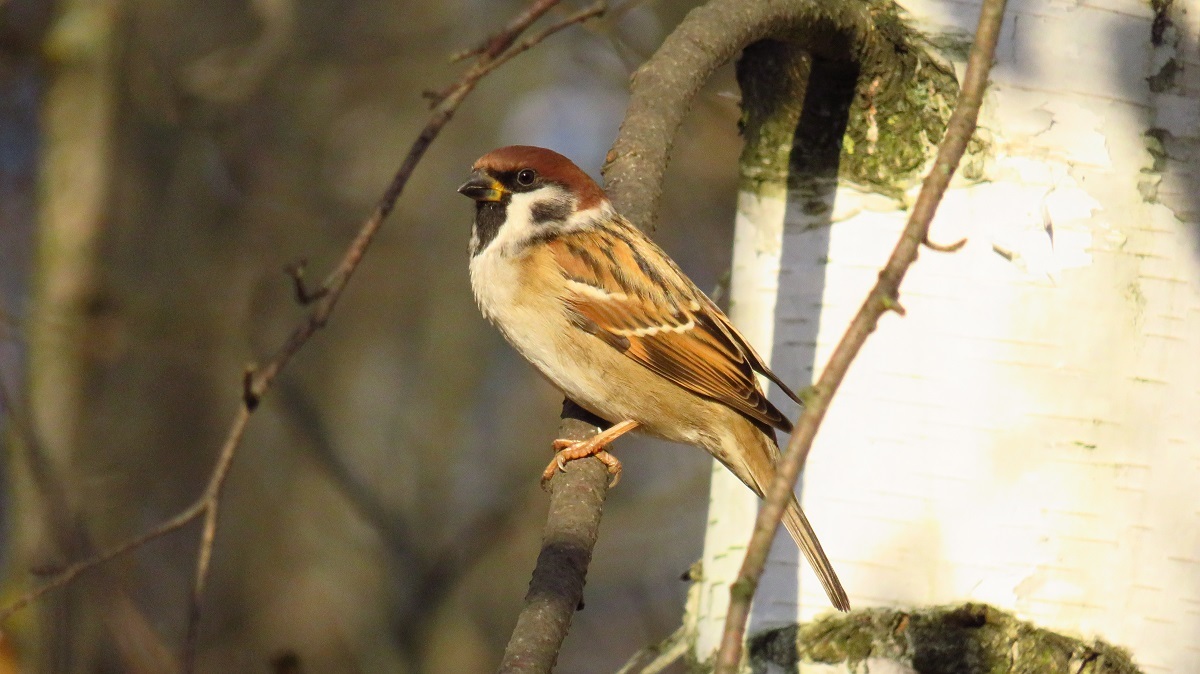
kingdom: Animalia
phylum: Chordata
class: Aves
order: Passeriformes
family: Passeridae
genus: Passer
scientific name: Passer montanus
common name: Eurasian tree sparrow
